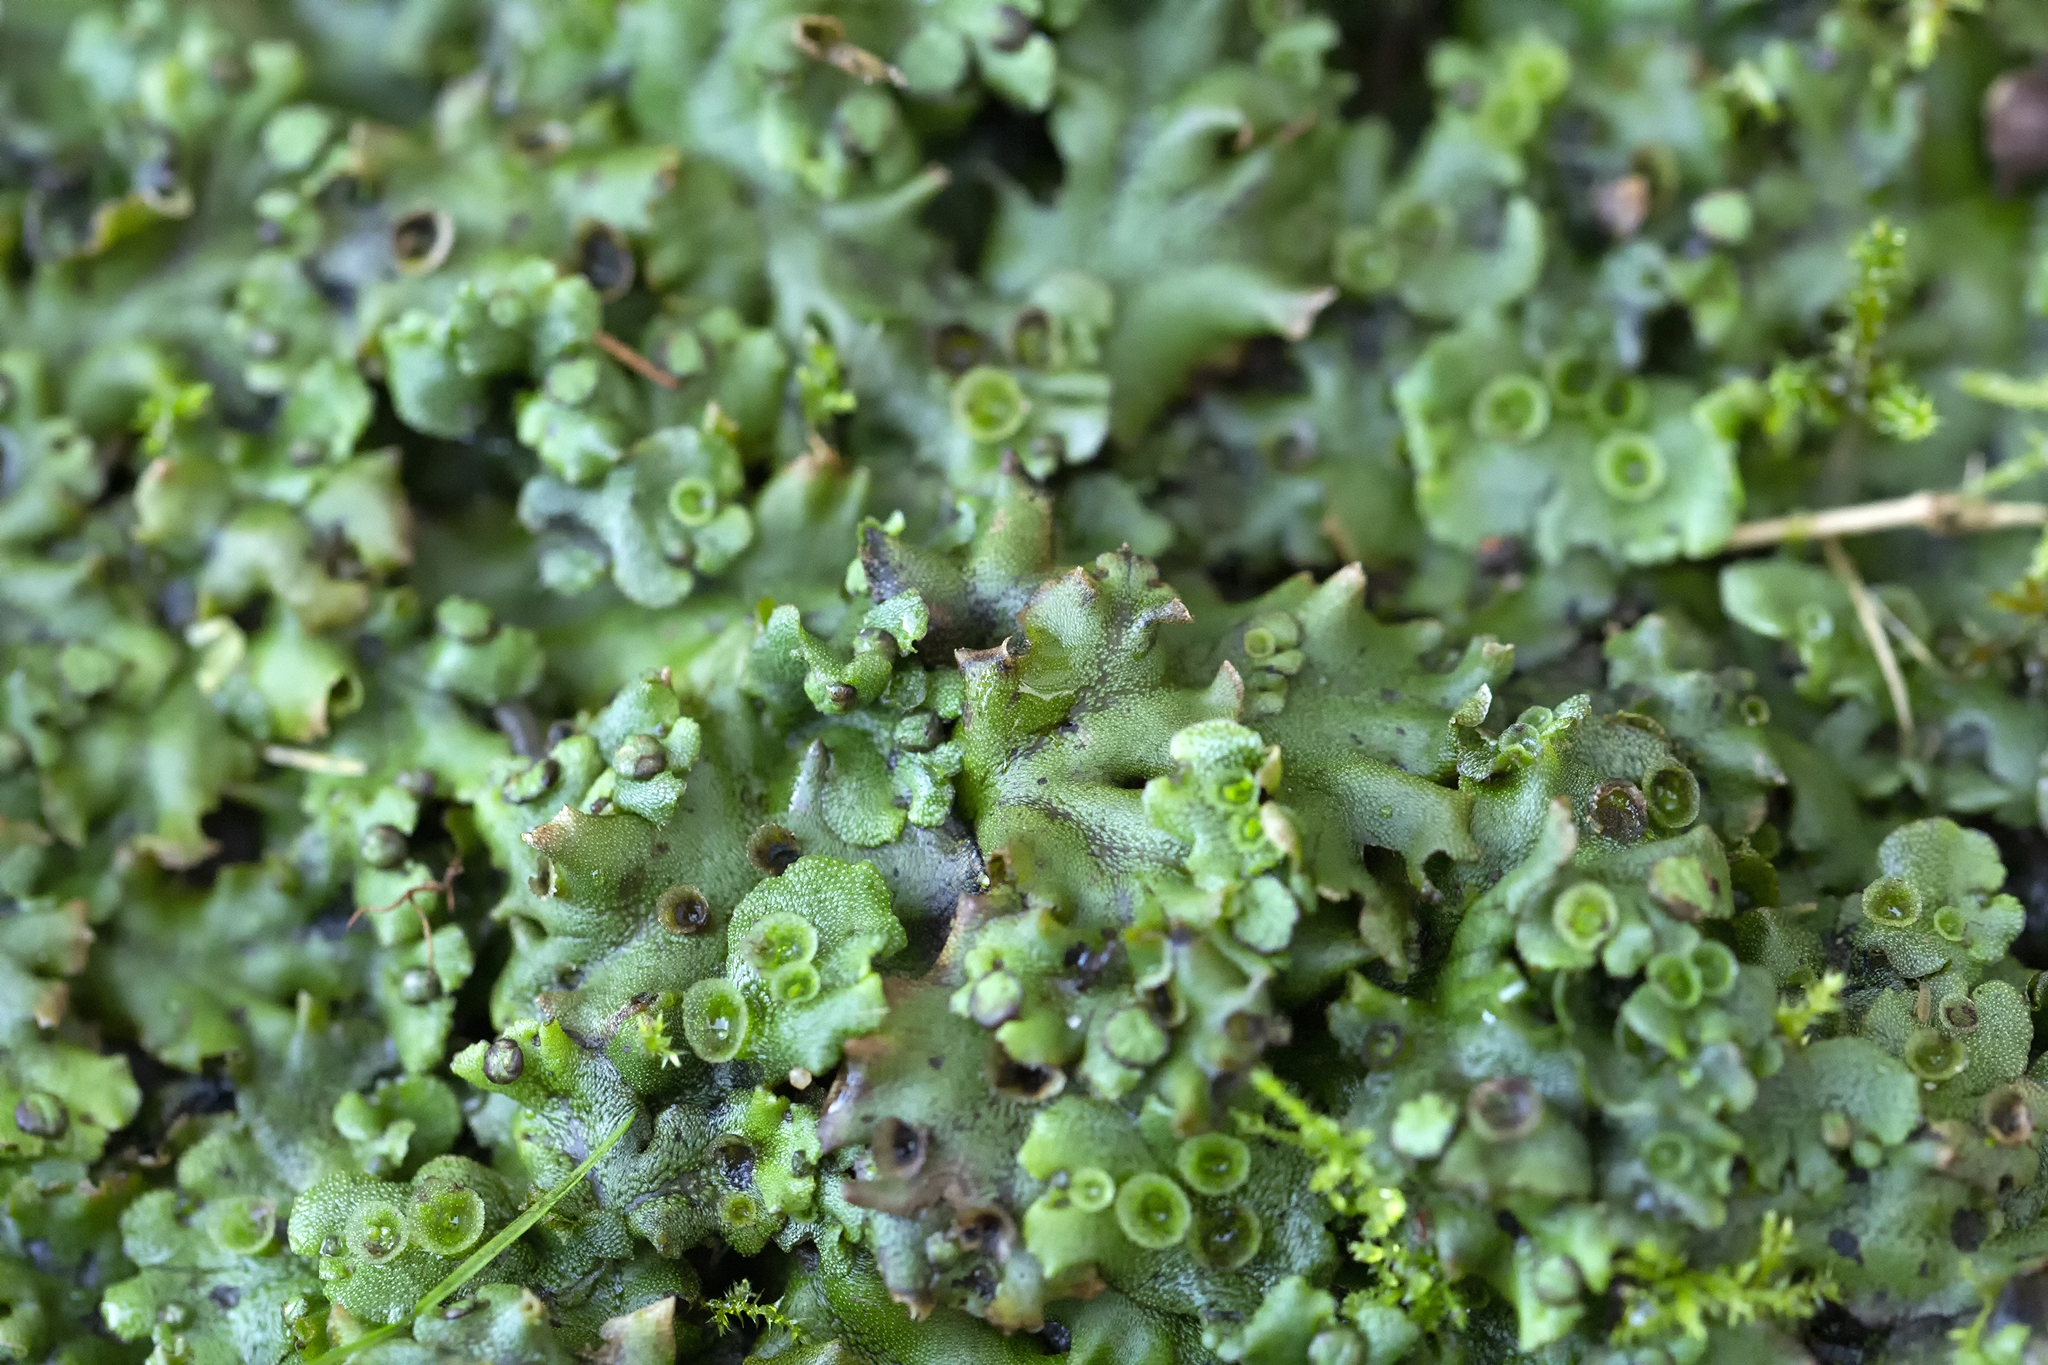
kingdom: Plantae
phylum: Marchantiophyta
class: Marchantiopsida
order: Marchantiales
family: Marchantiaceae
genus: Marchantia
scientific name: Marchantia polymorpha
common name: Common liverwort
